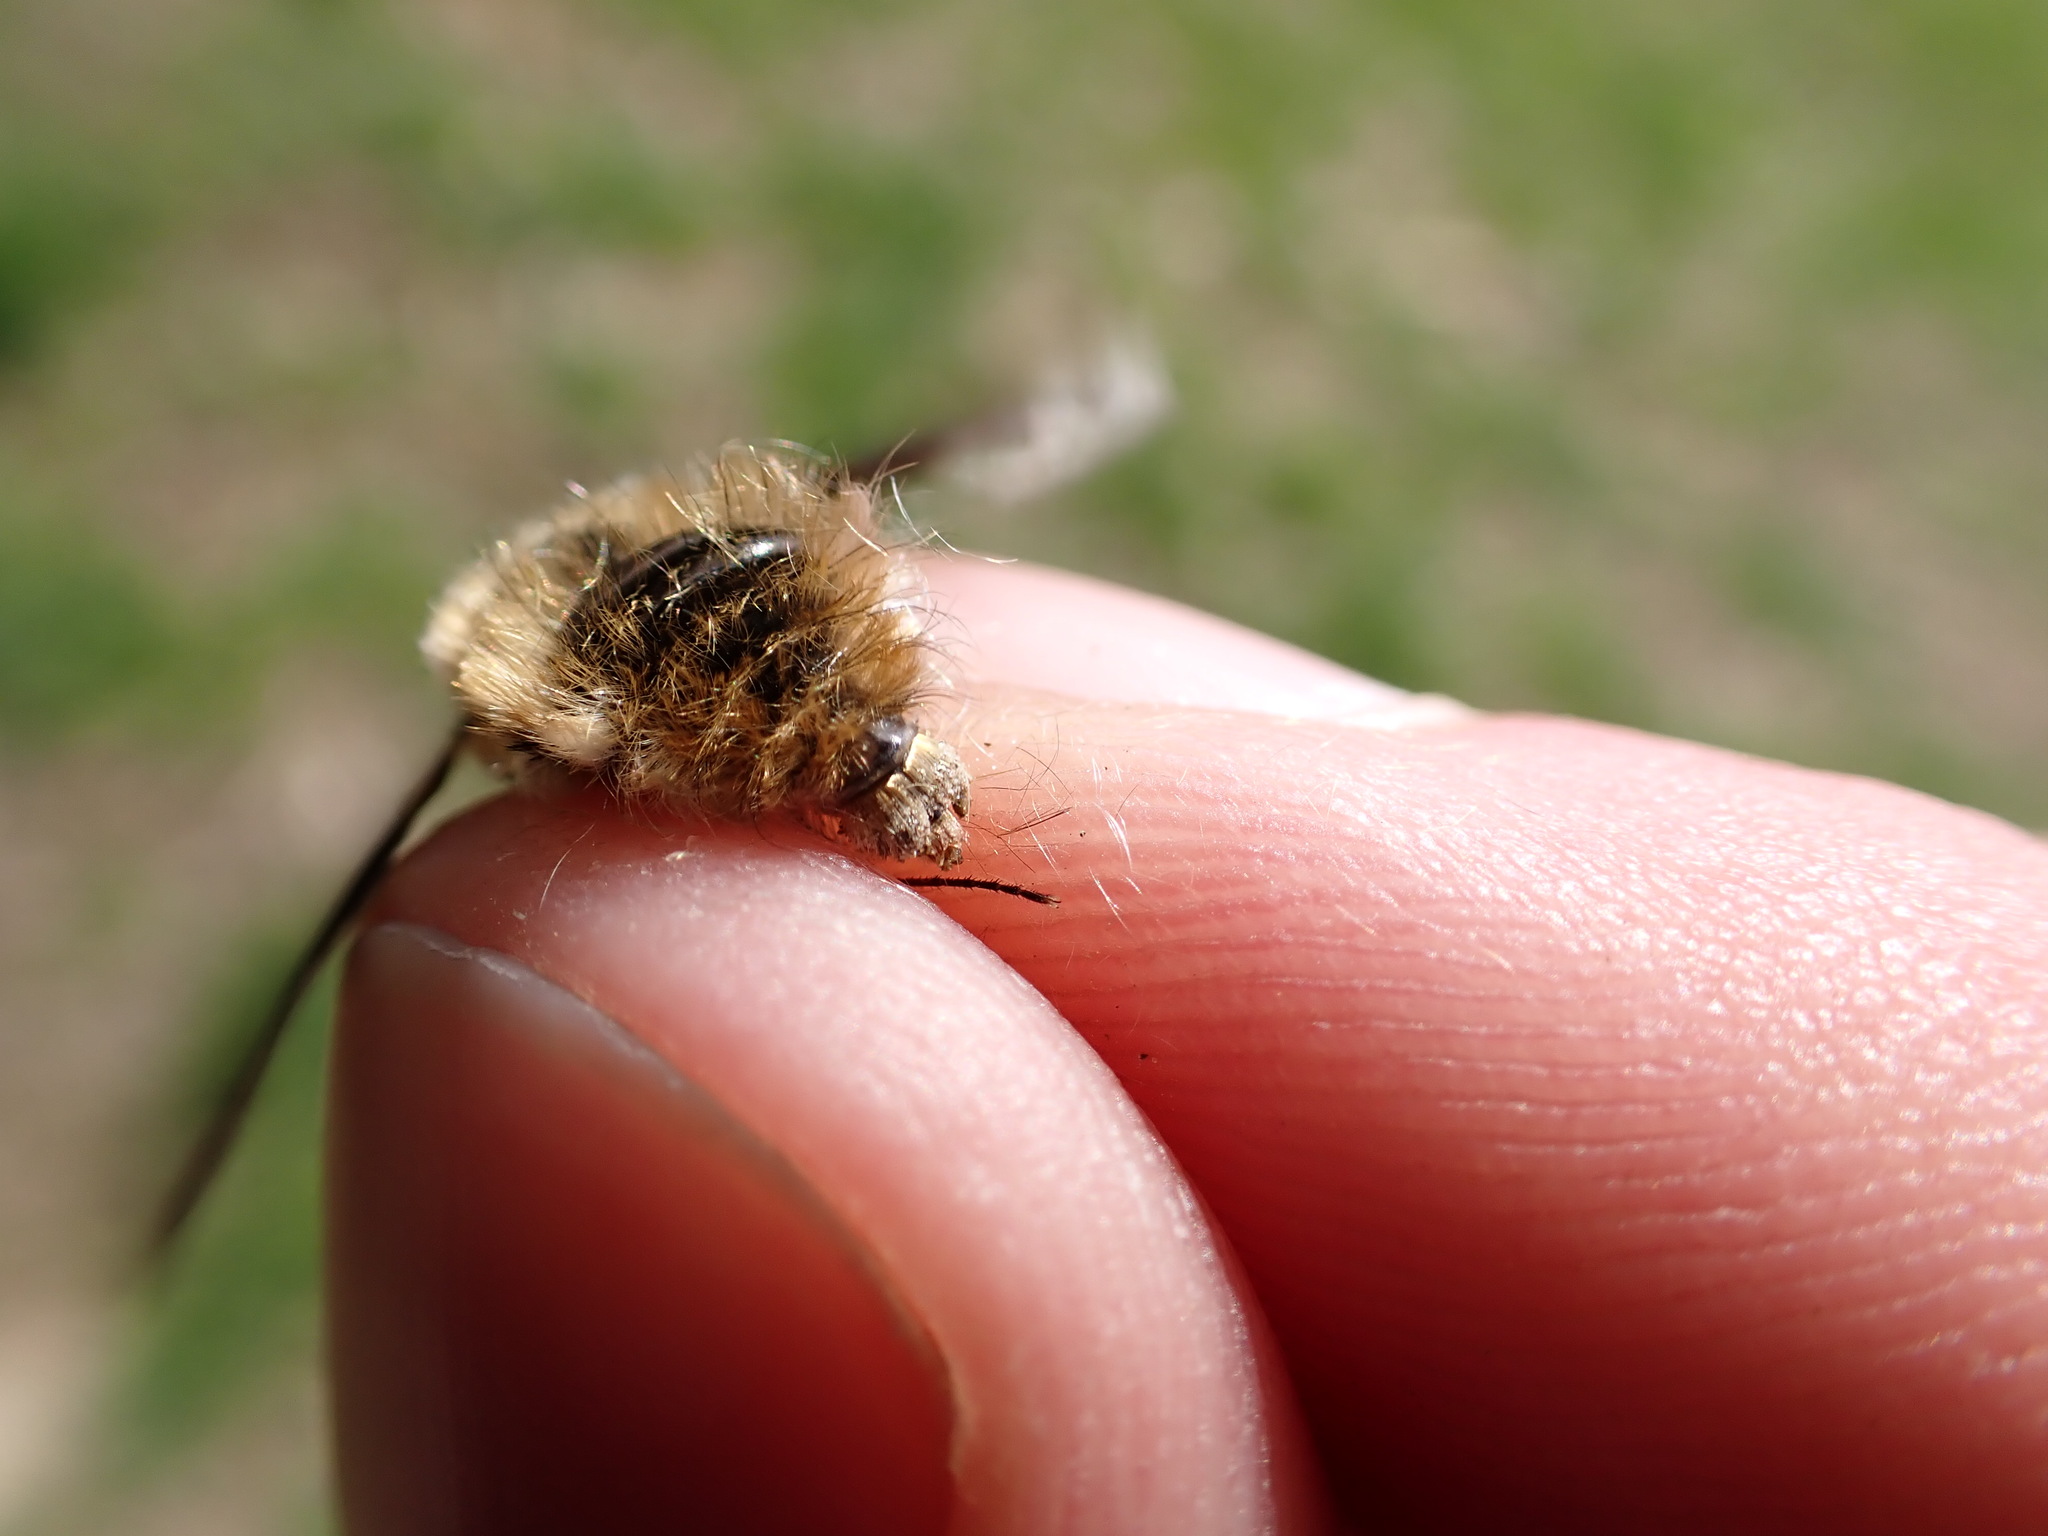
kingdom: Animalia
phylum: Arthropoda
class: Insecta
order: Diptera
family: Bombyliidae
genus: Bombylius
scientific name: Bombylius major
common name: Bee fly
